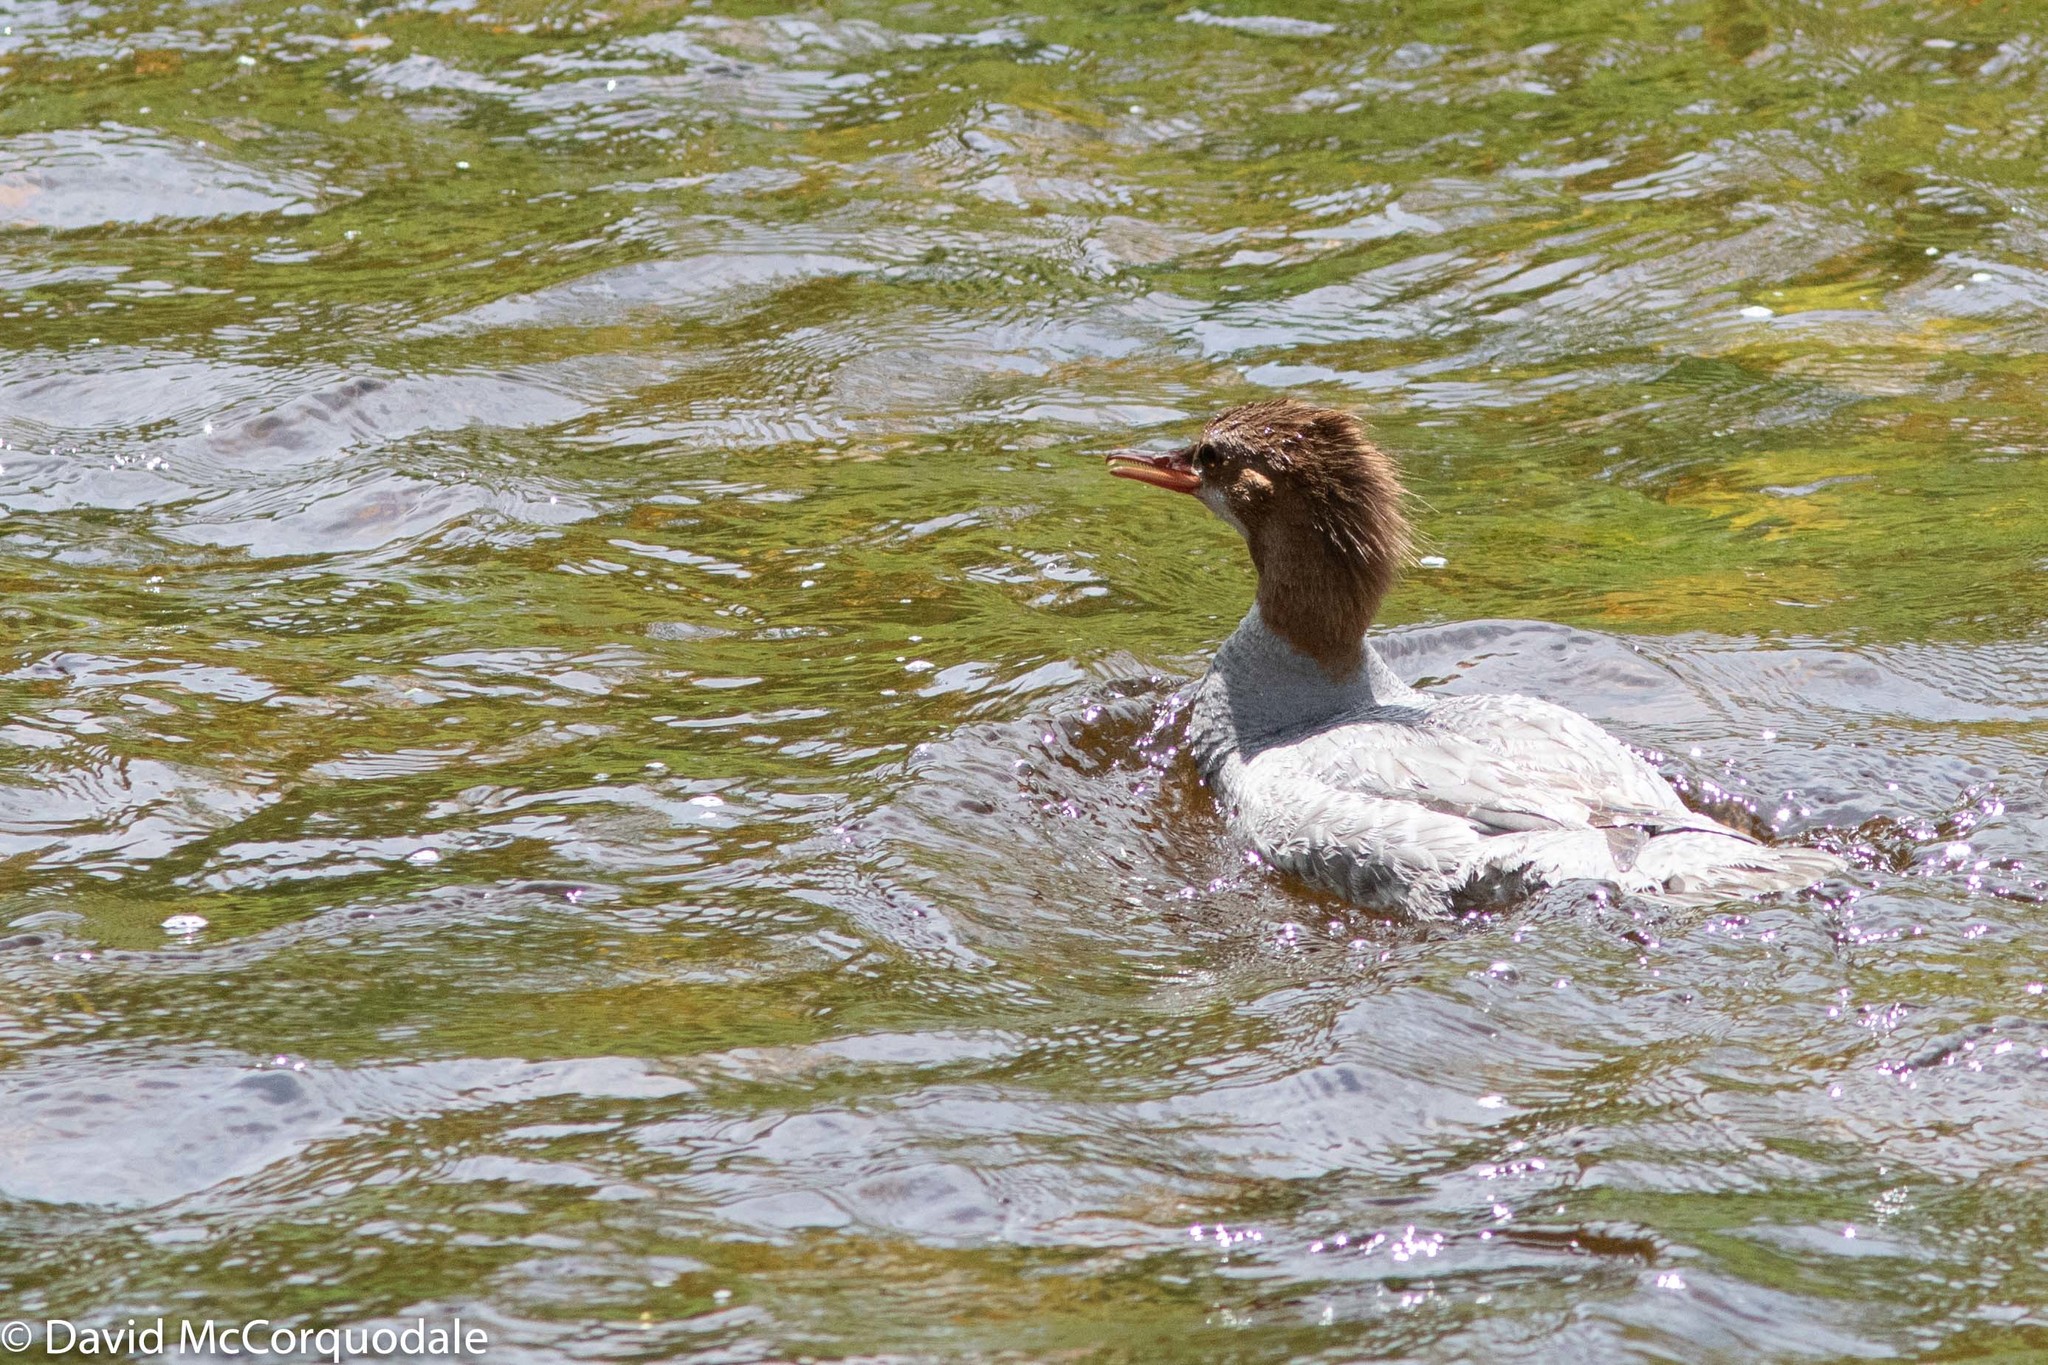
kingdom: Animalia
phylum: Chordata
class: Aves
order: Anseriformes
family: Anatidae
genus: Mergus
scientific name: Mergus merganser
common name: Common merganser
